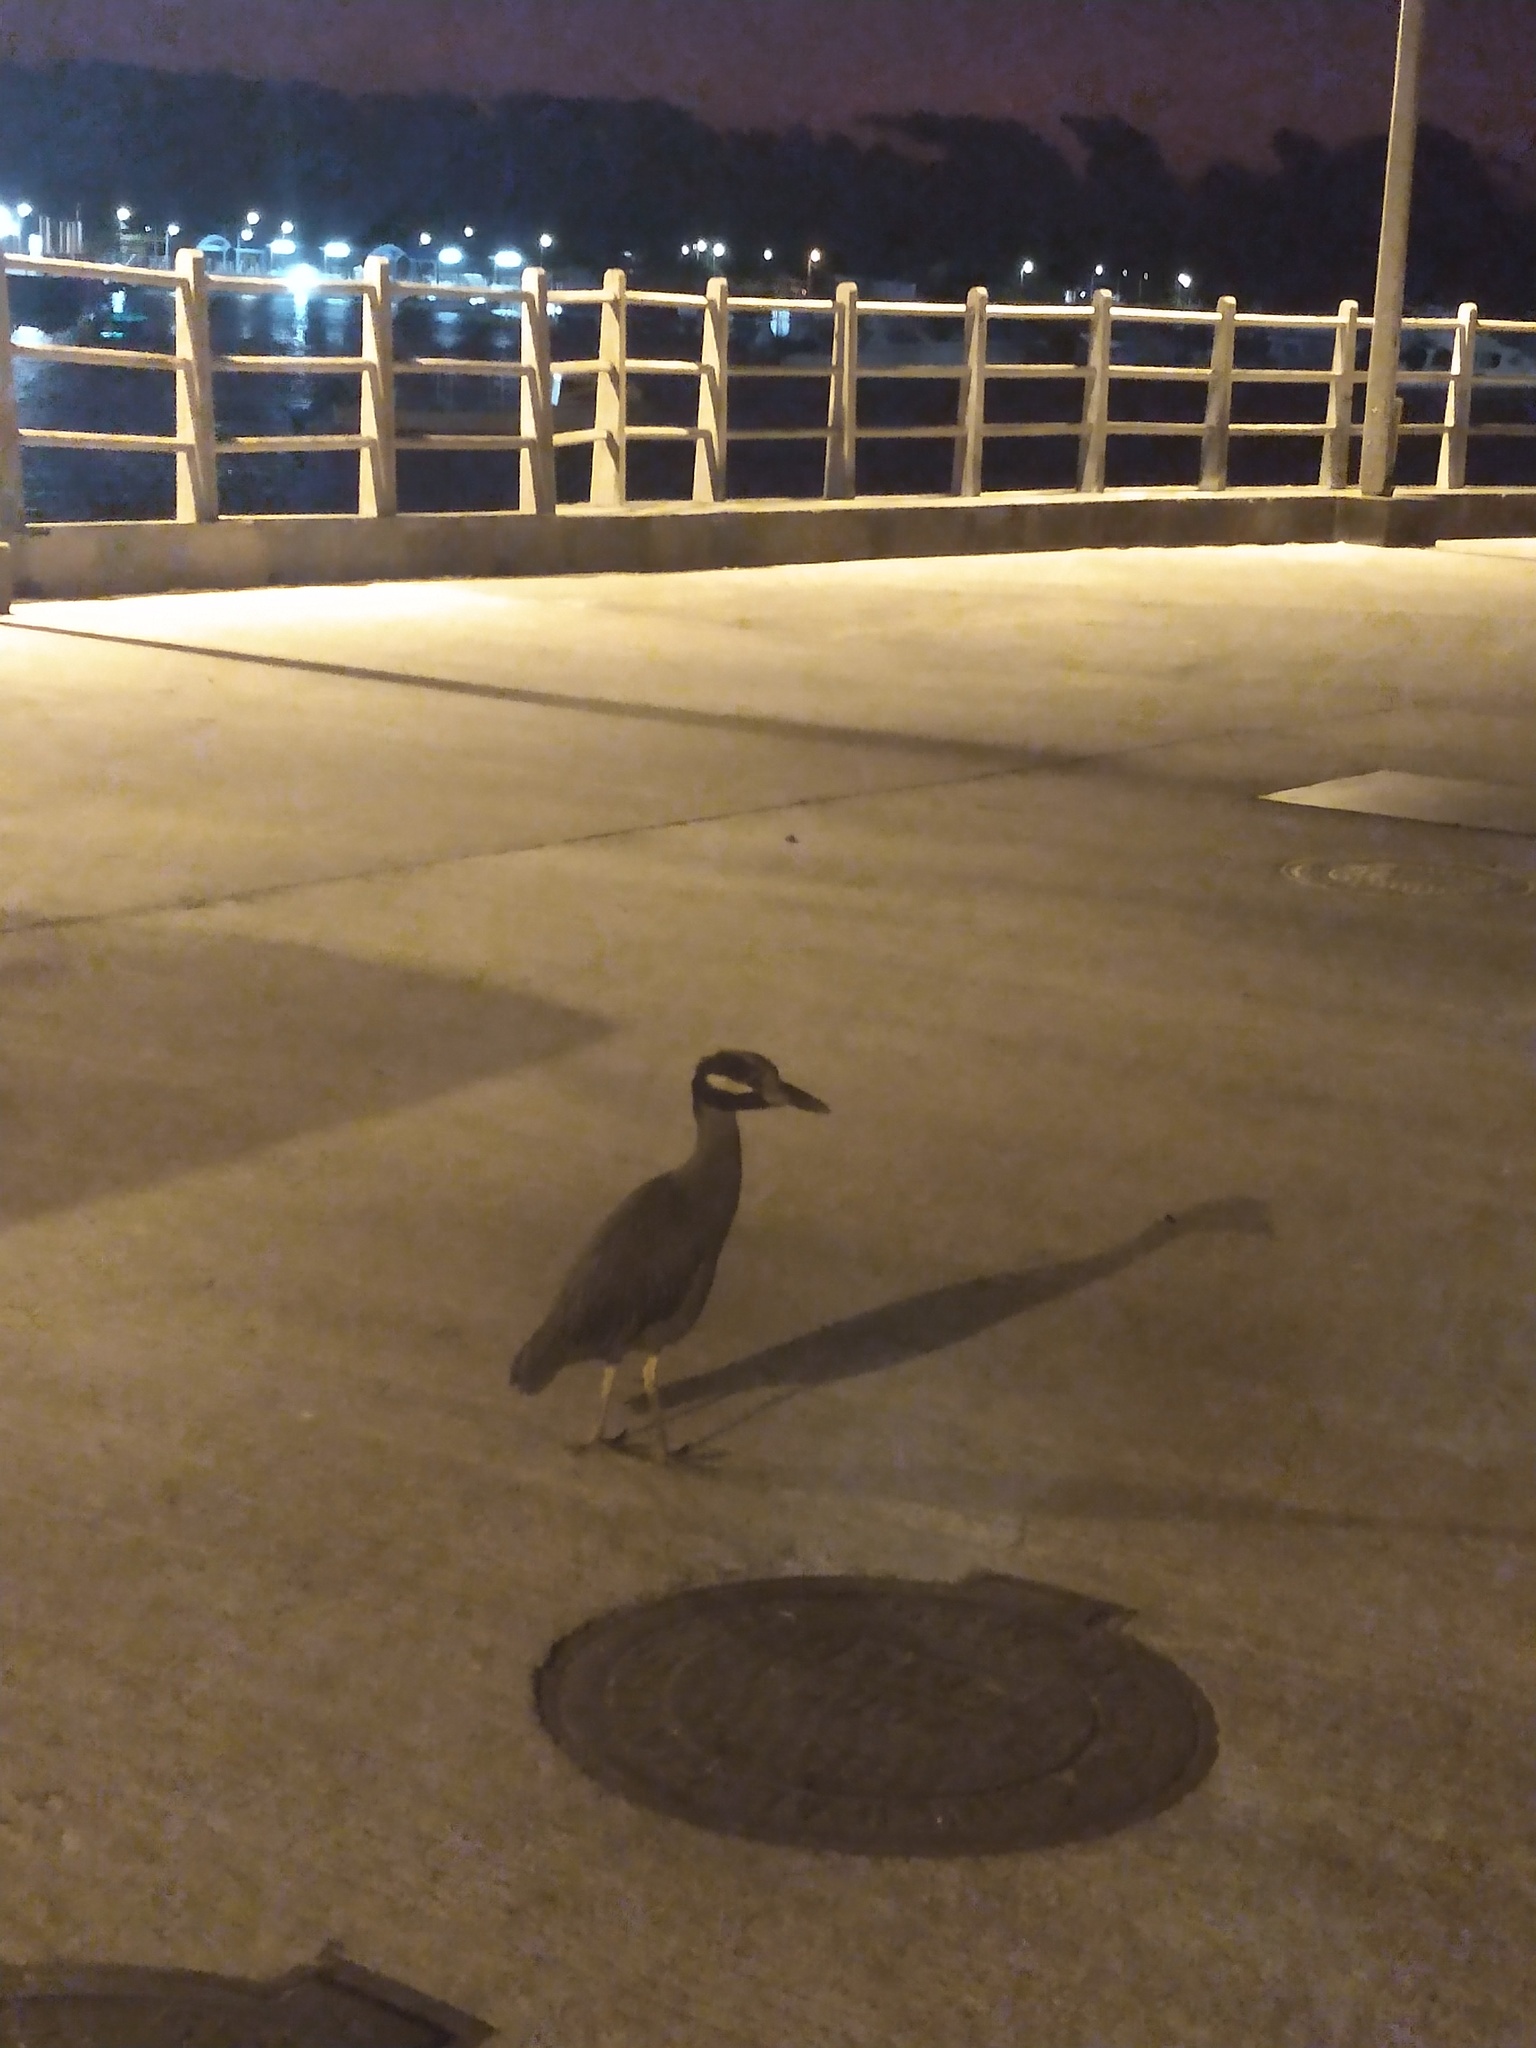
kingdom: Animalia
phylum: Chordata
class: Aves
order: Pelecaniformes
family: Ardeidae
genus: Nyctanassa
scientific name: Nyctanassa violacea
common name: Yellow-crowned night heron
